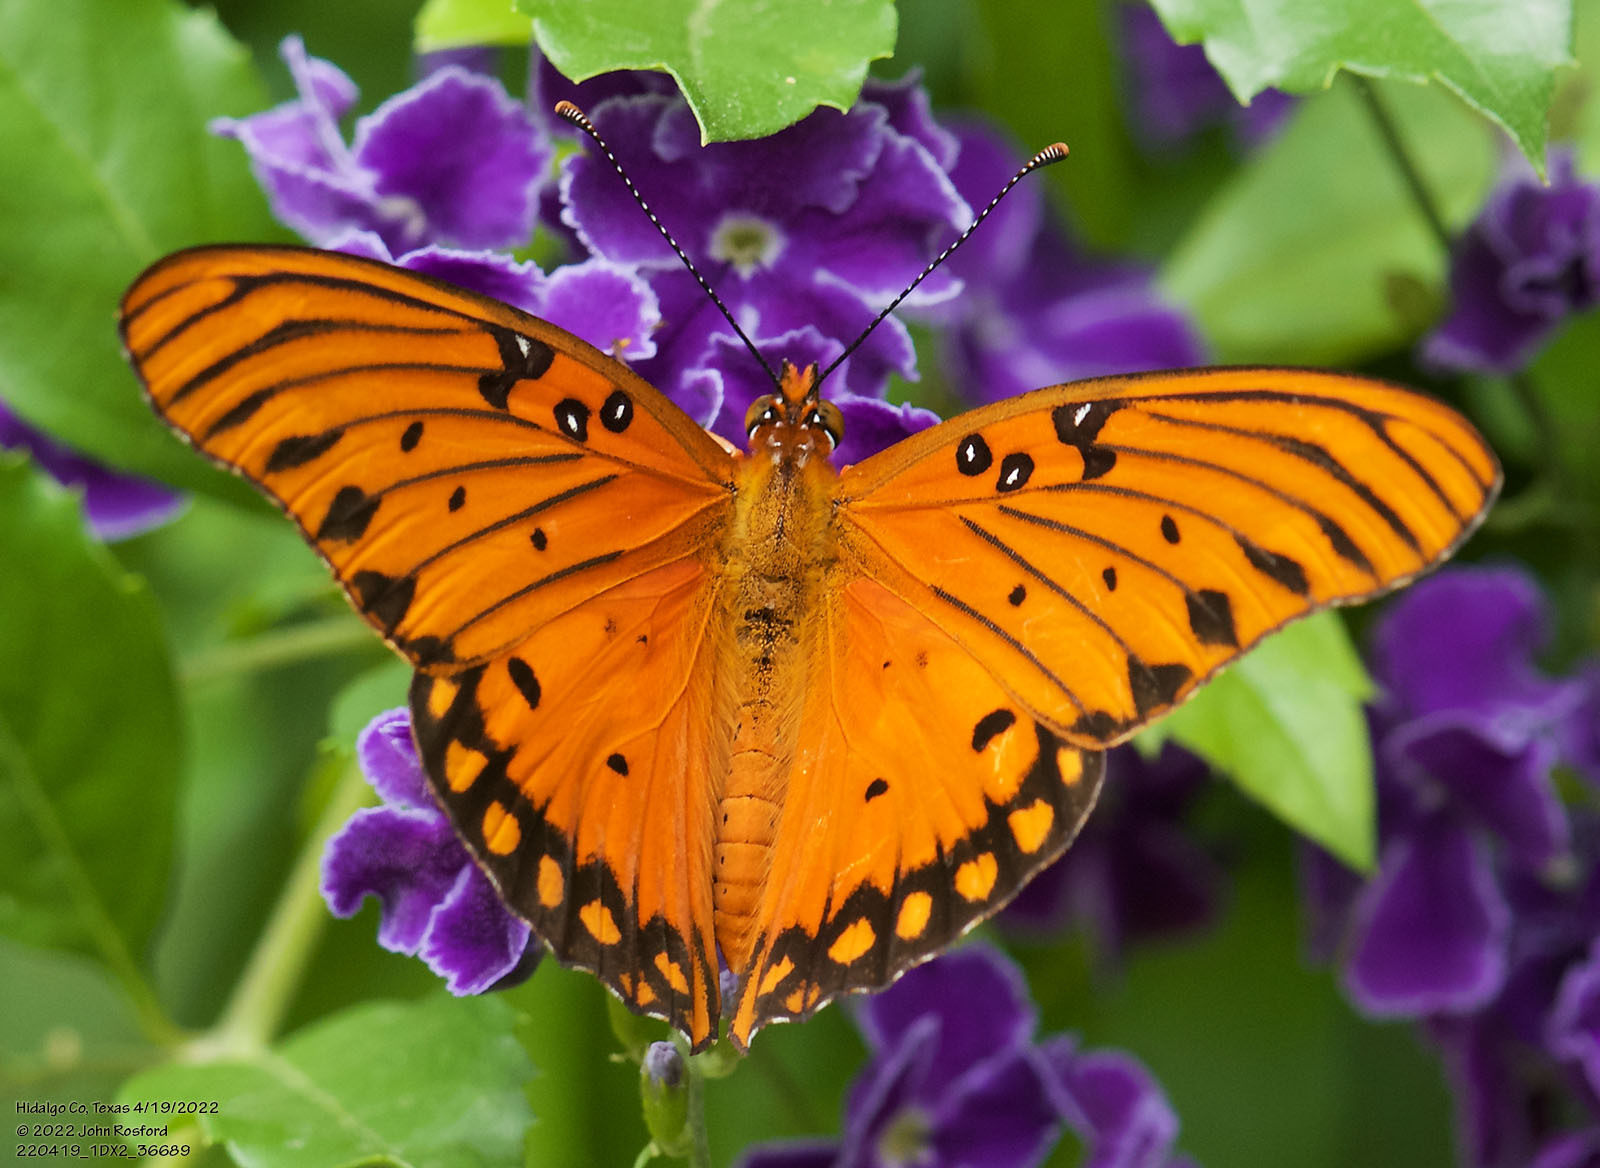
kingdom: Animalia
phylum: Arthropoda
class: Insecta
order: Lepidoptera
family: Nymphalidae
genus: Dione
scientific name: Dione vanillae
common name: Gulf fritillary
